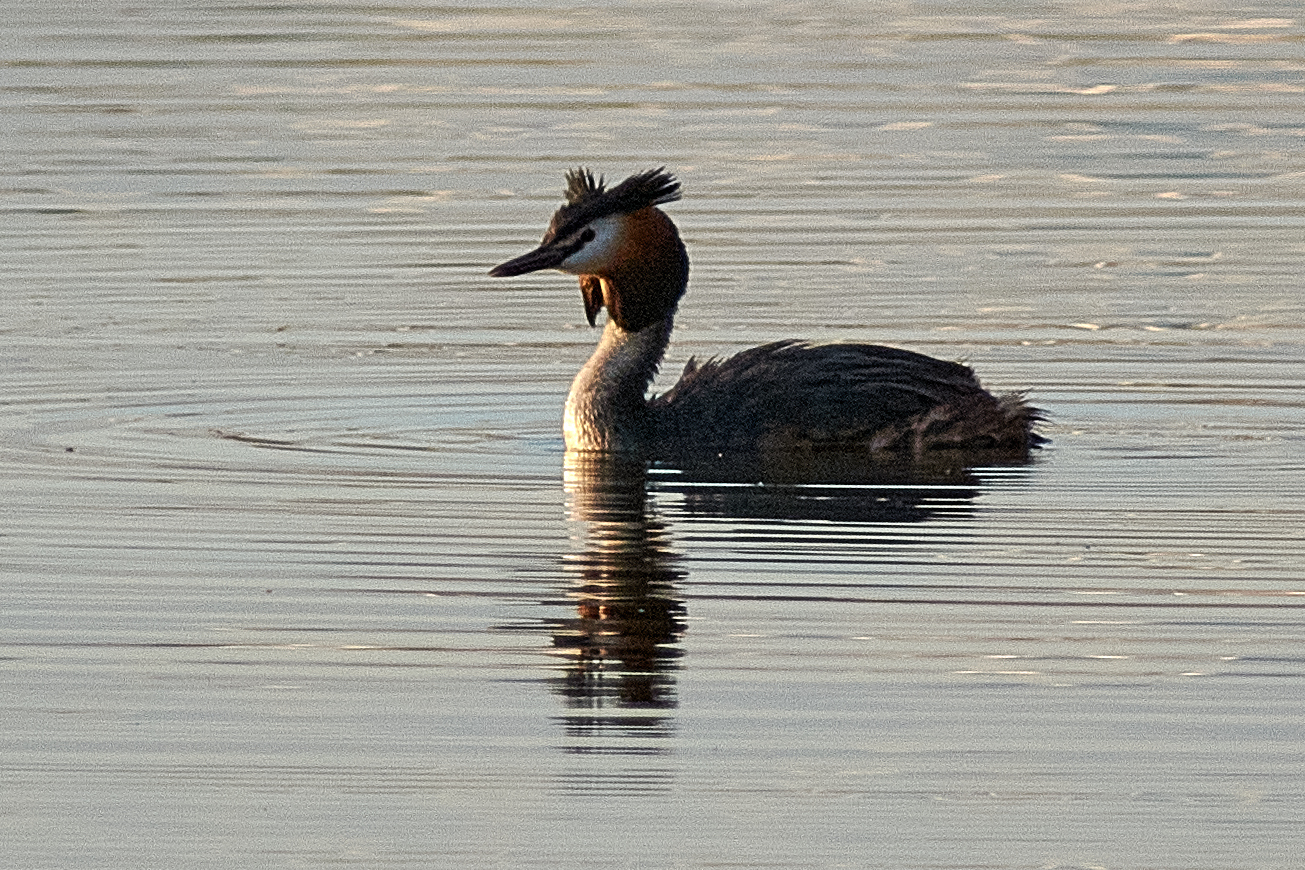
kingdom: Animalia
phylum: Chordata
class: Aves
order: Podicipediformes
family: Podicipedidae
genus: Podiceps
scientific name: Podiceps cristatus
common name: Great crested grebe
